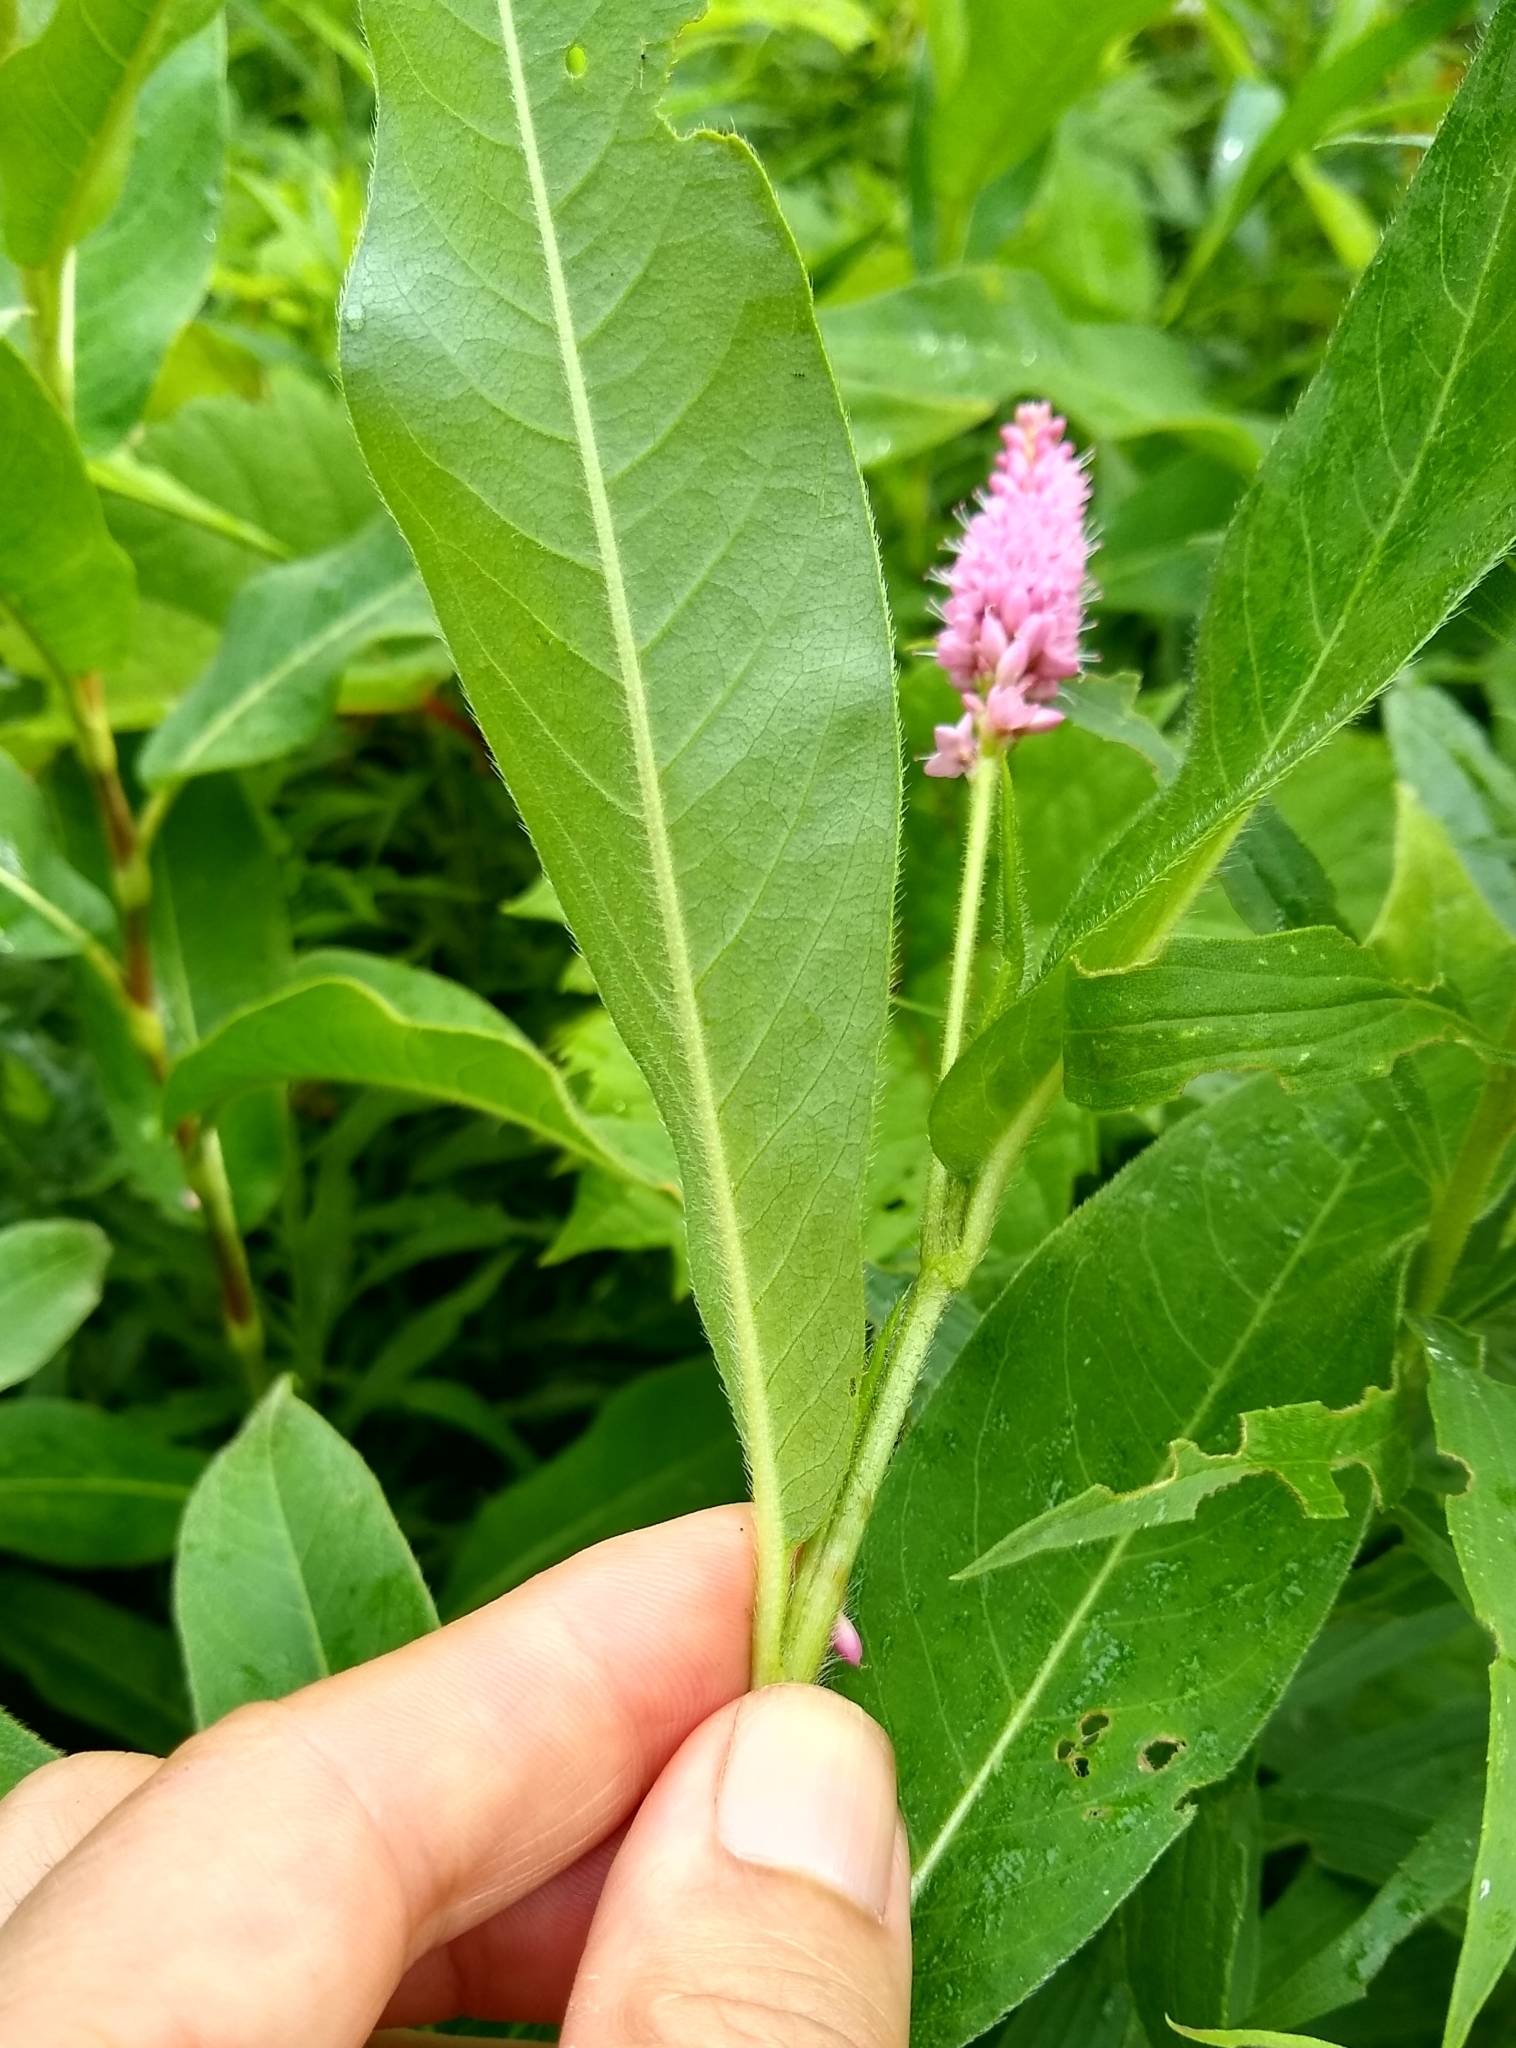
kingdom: Plantae
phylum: Tracheophyta
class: Magnoliopsida
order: Caryophyllales
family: Polygonaceae
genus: Persicaria
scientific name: Persicaria amphibia
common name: Amphibious bistort
